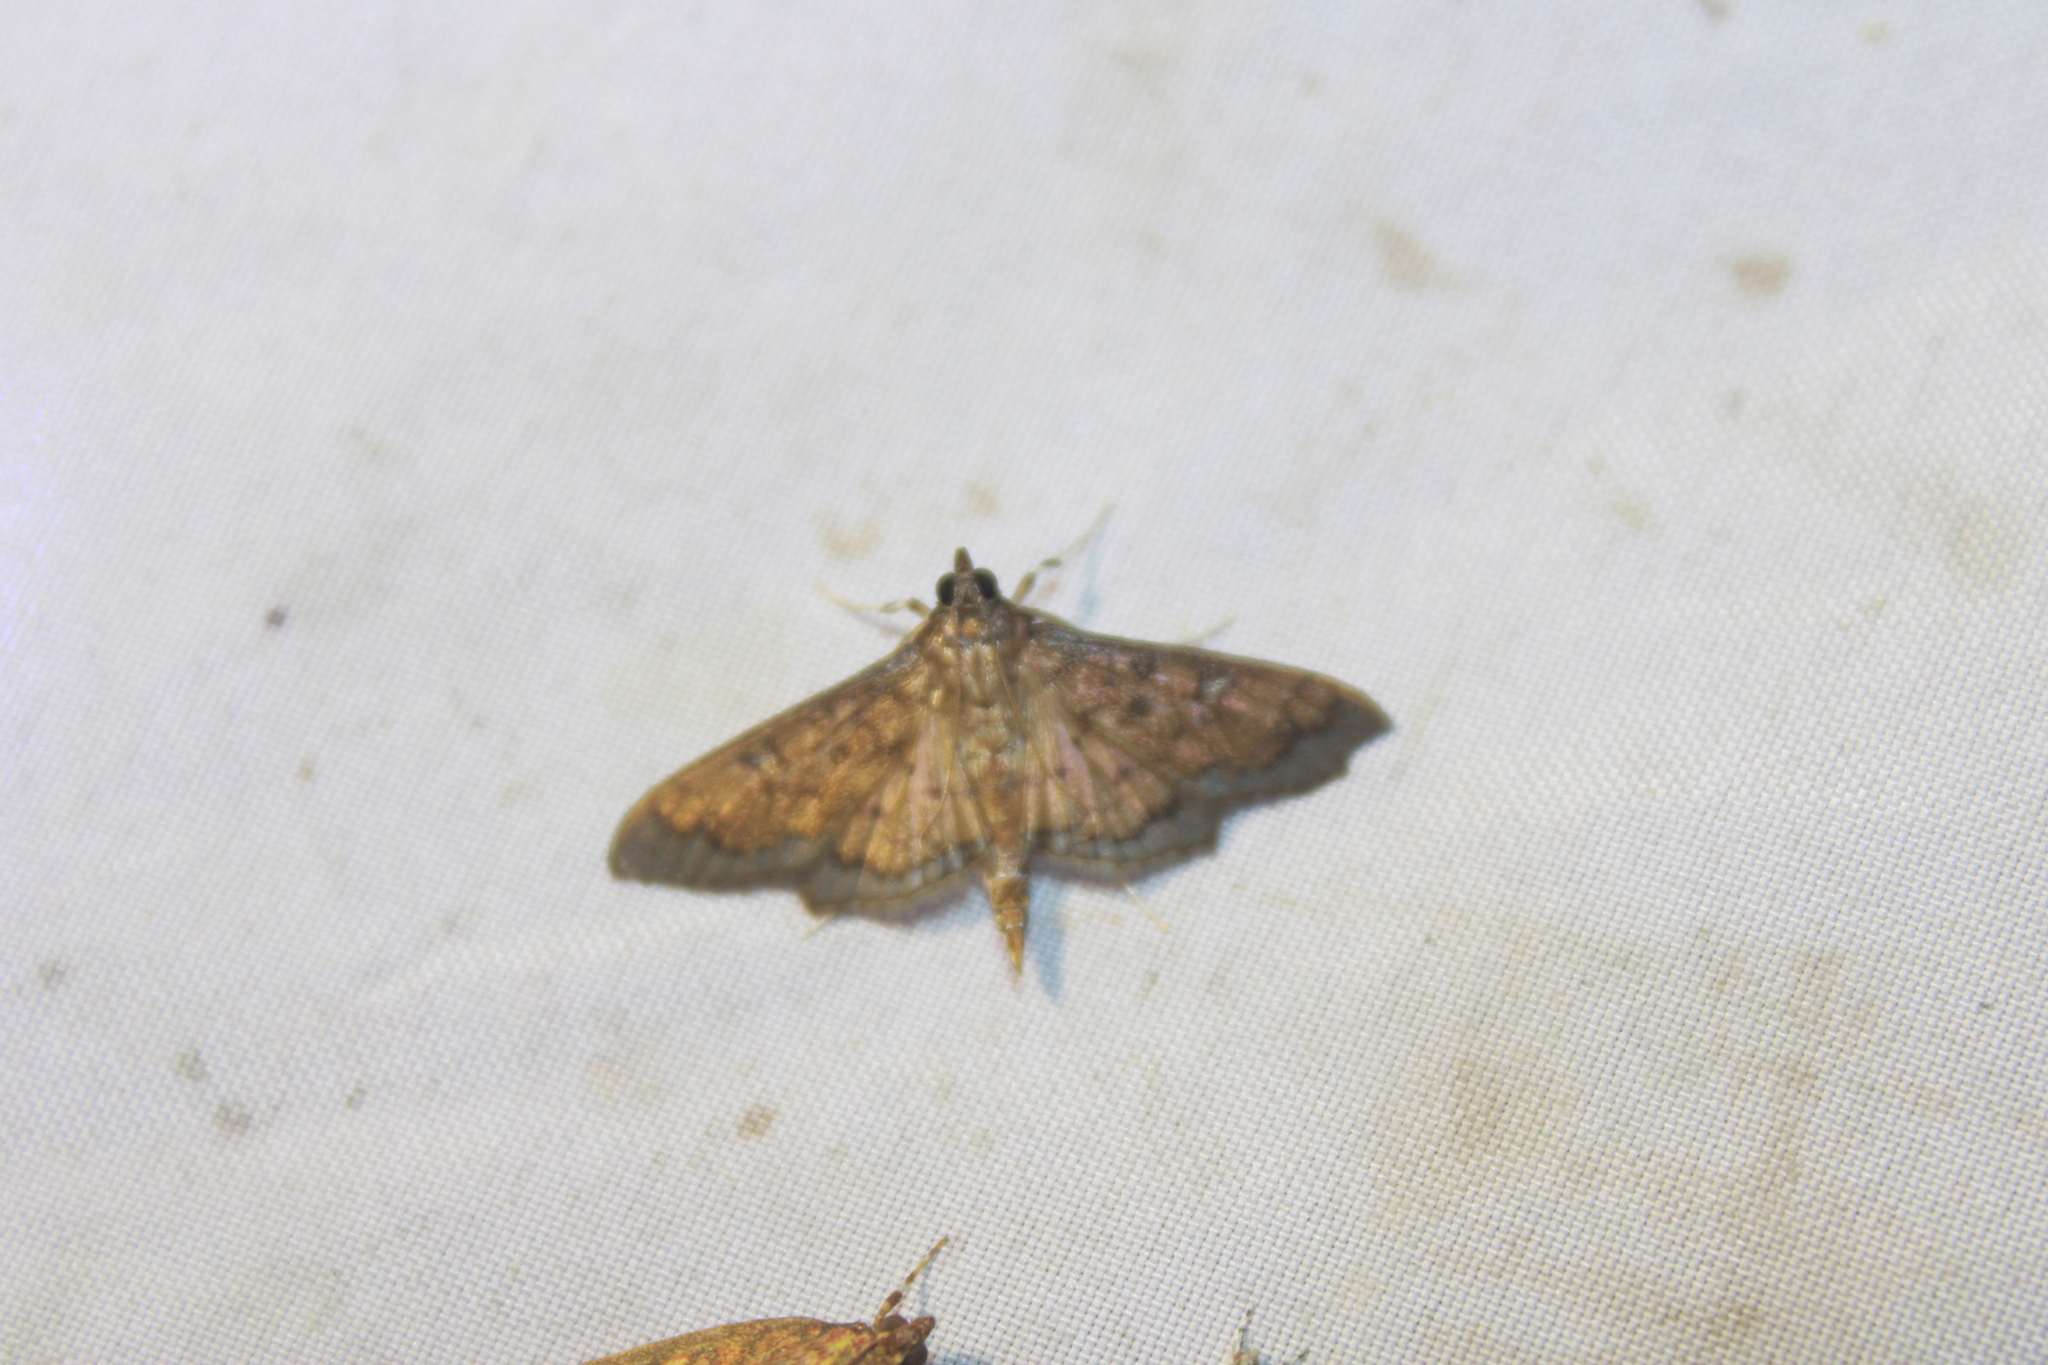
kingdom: Animalia
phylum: Arthropoda
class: Insecta
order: Lepidoptera
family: Crambidae
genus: Diacme
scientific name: Diacme phyllisalis
